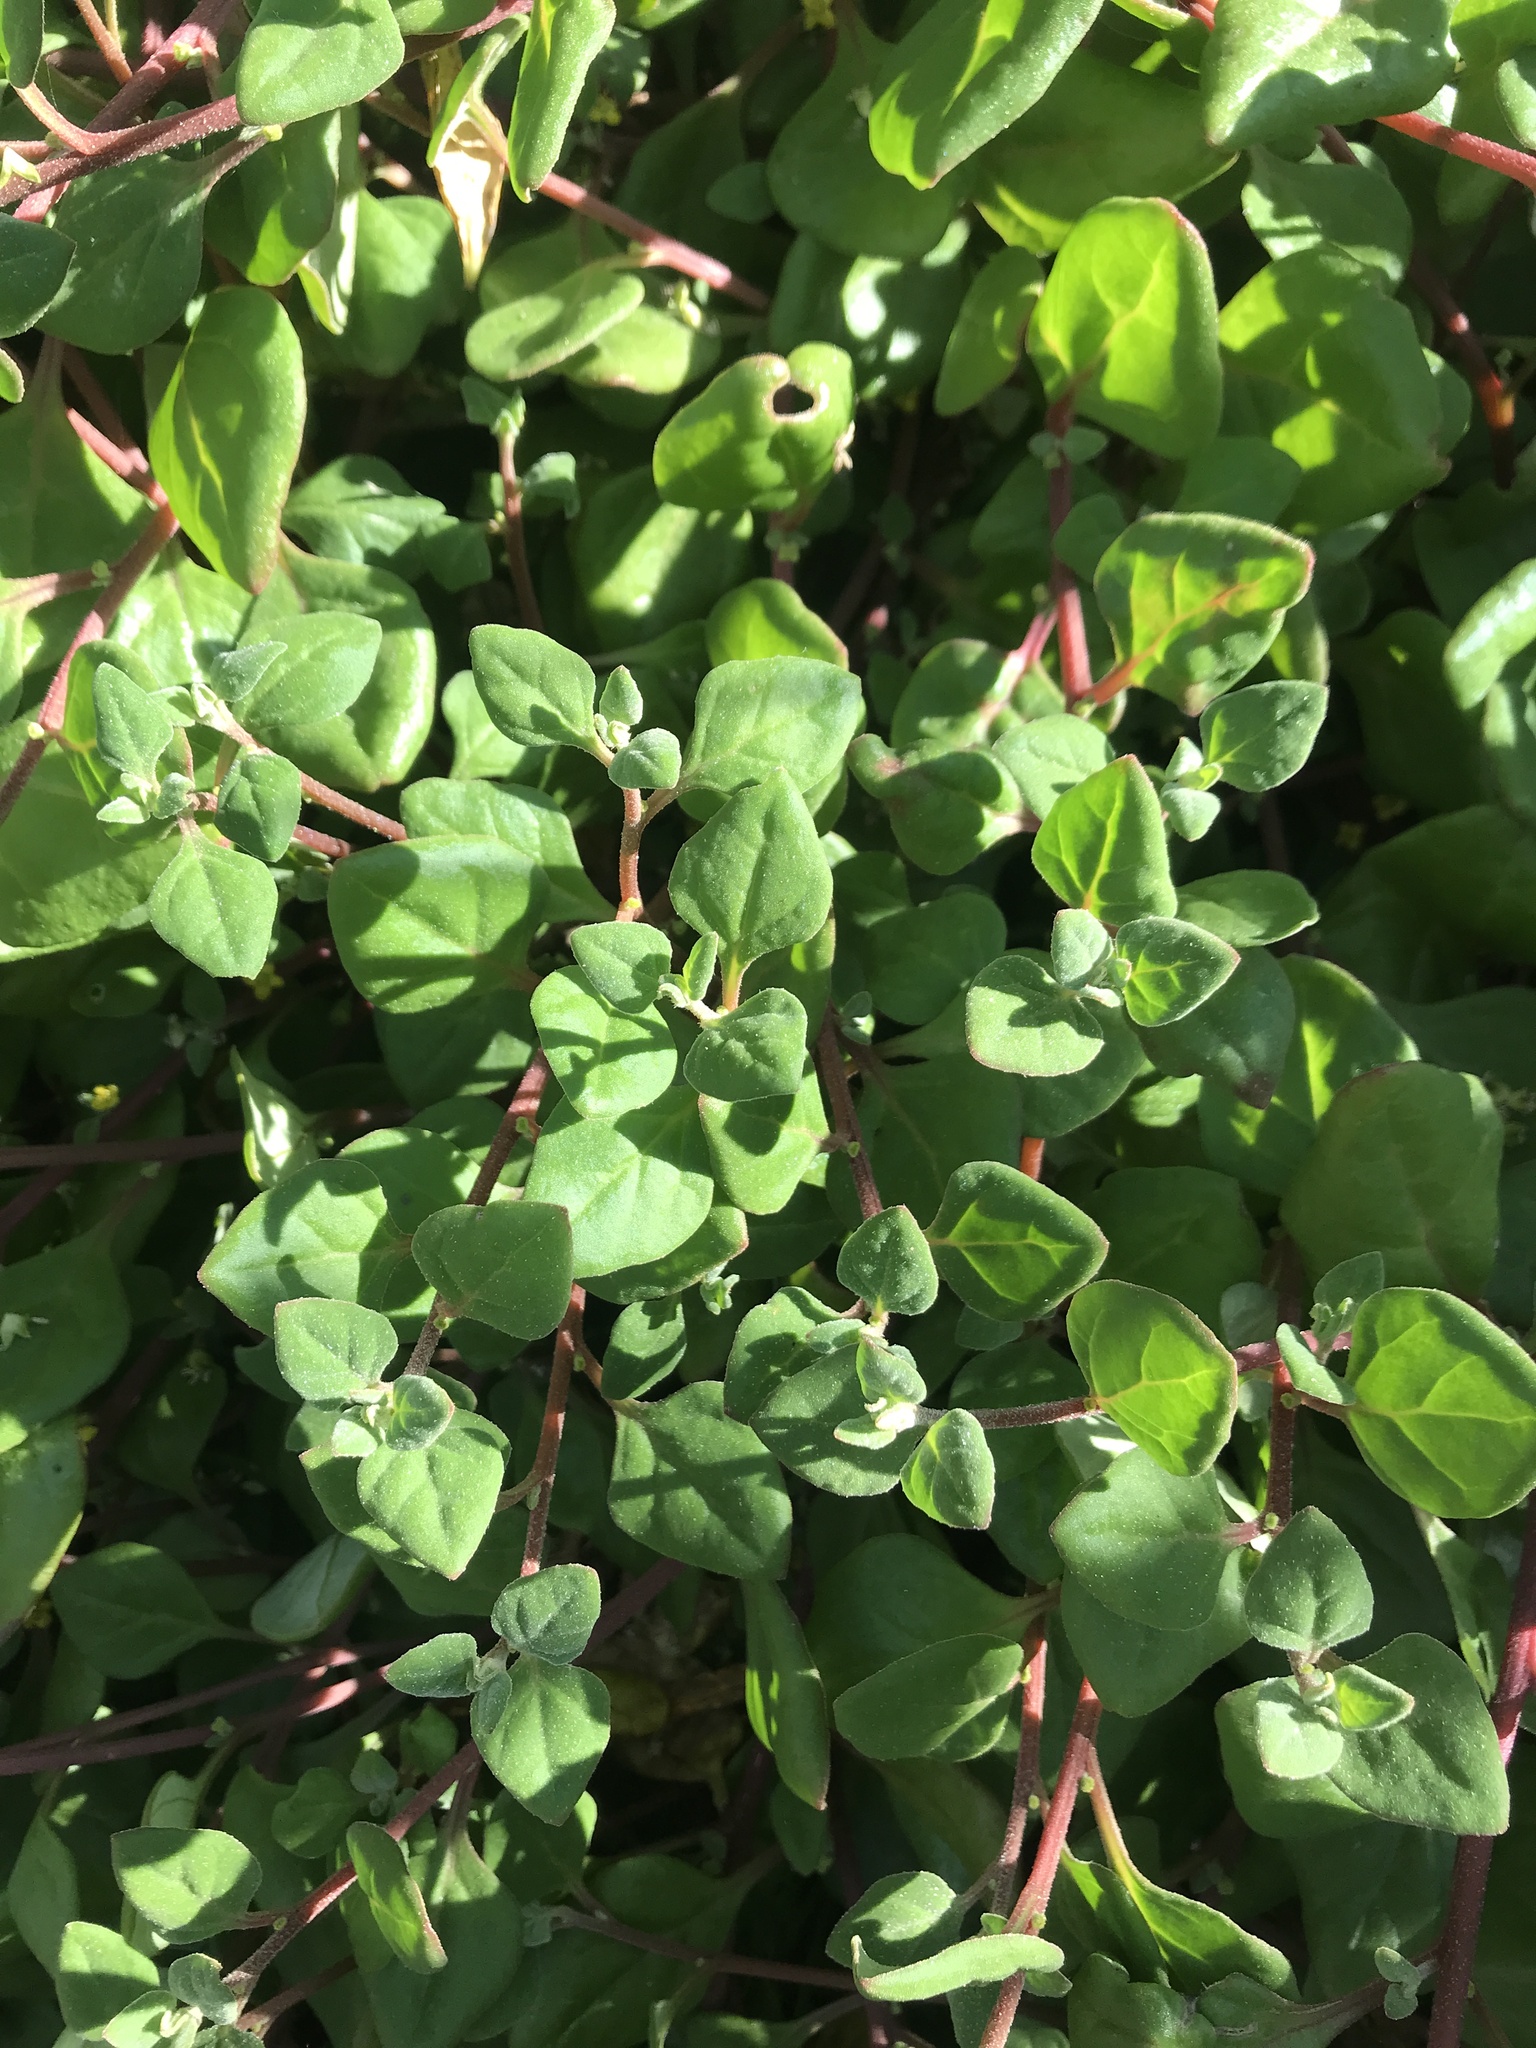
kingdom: Plantae
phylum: Tracheophyta
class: Magnoliopsida
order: Caryophyllales
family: Aizoaceae
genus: Tetragonia
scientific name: Tetragonia implexicoma
